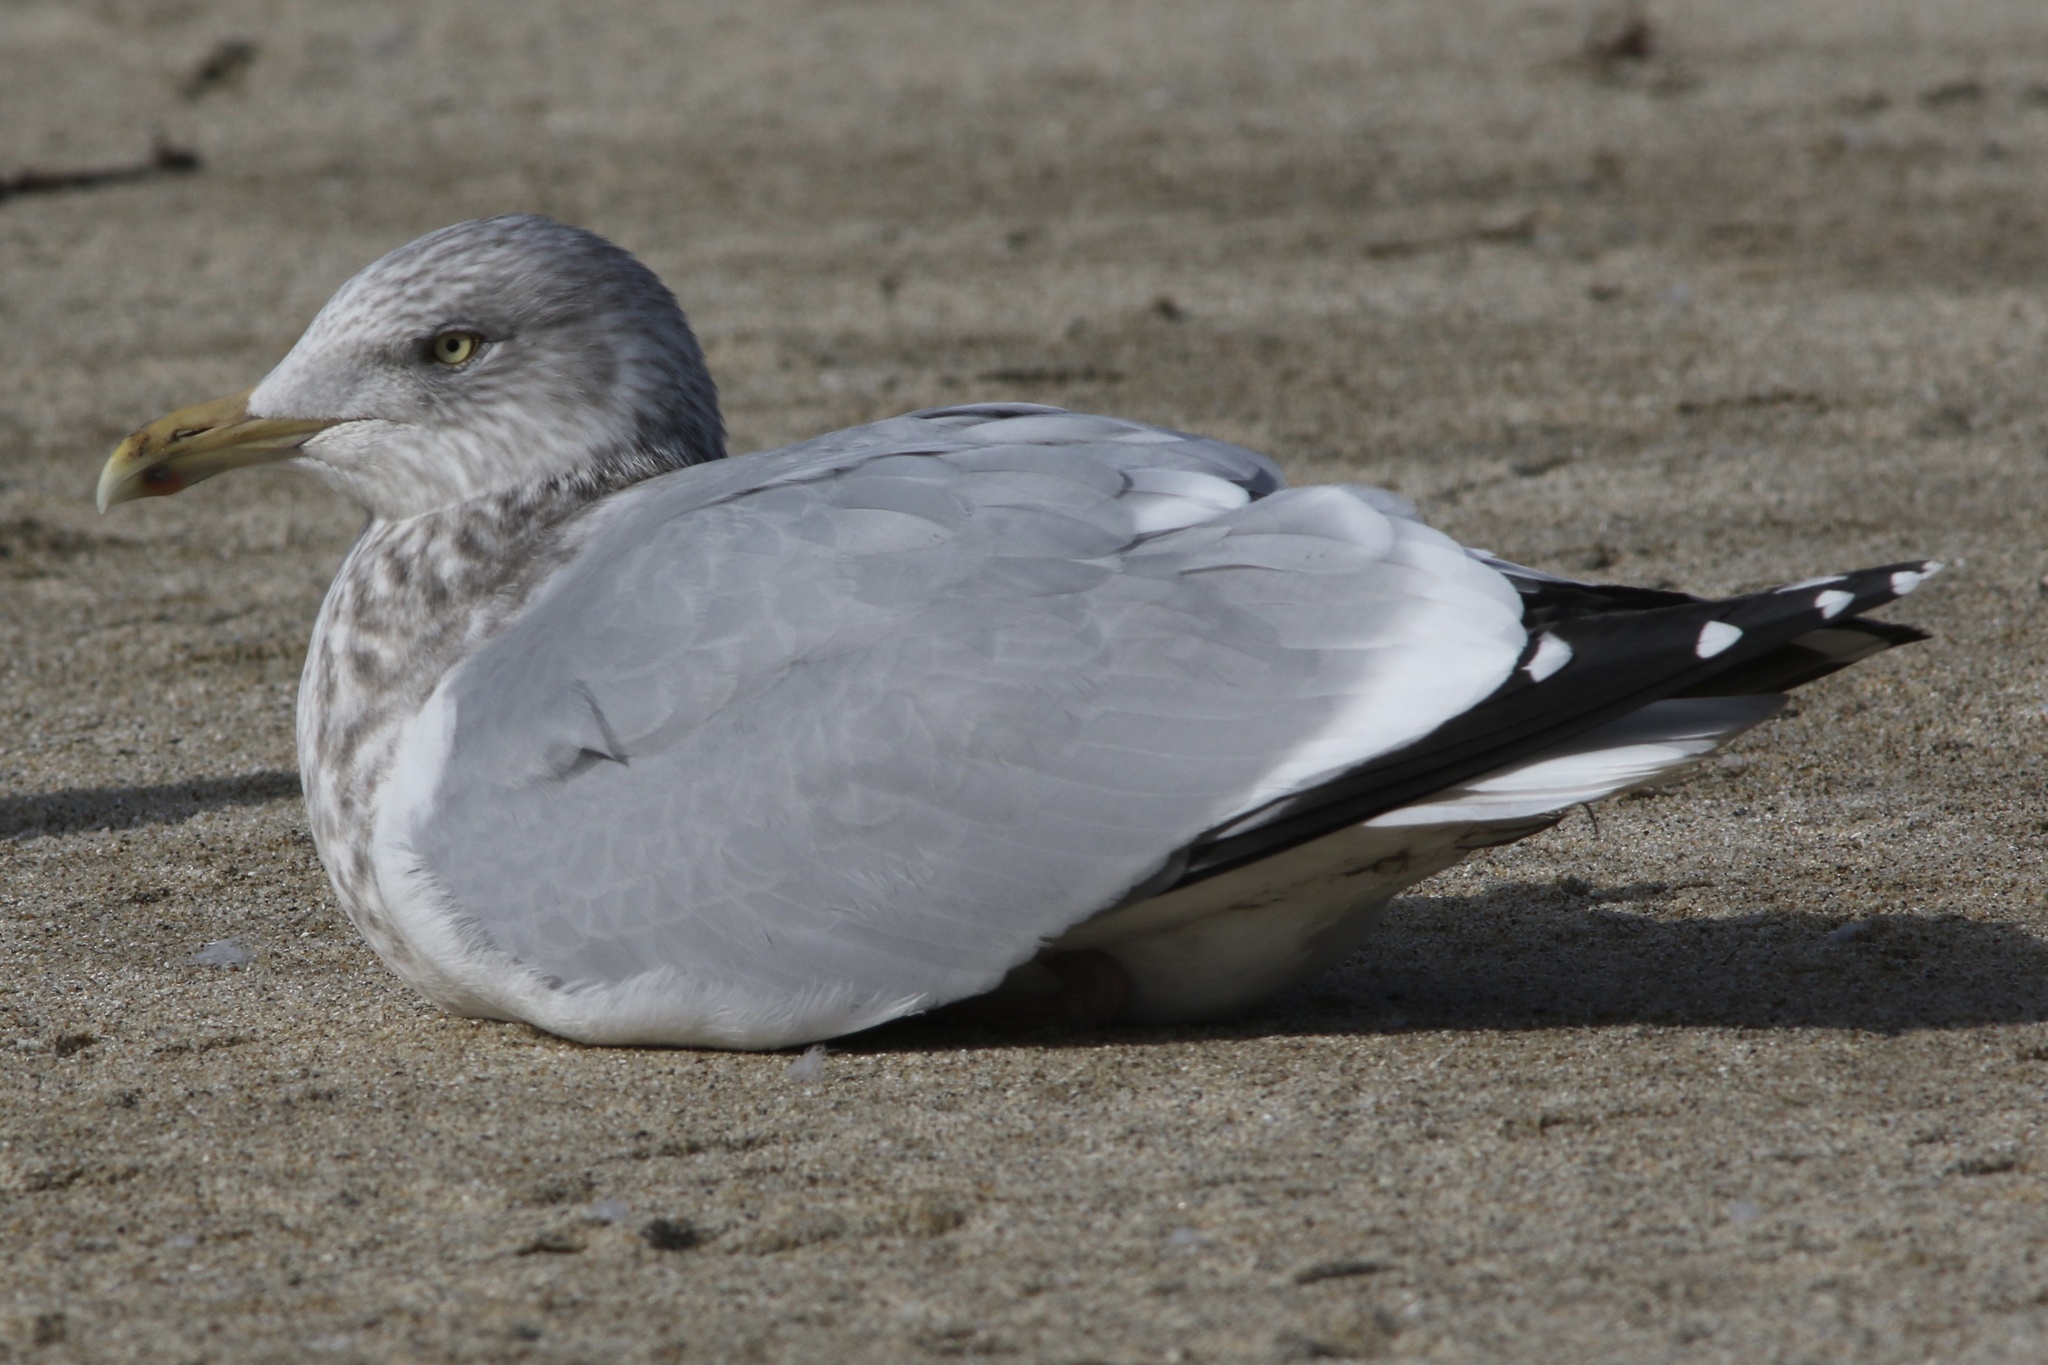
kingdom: Animalia
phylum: Chordata
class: Aves
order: Charadriiformes
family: Laridae
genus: Larus
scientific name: Larus argentatus
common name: Herring gull
